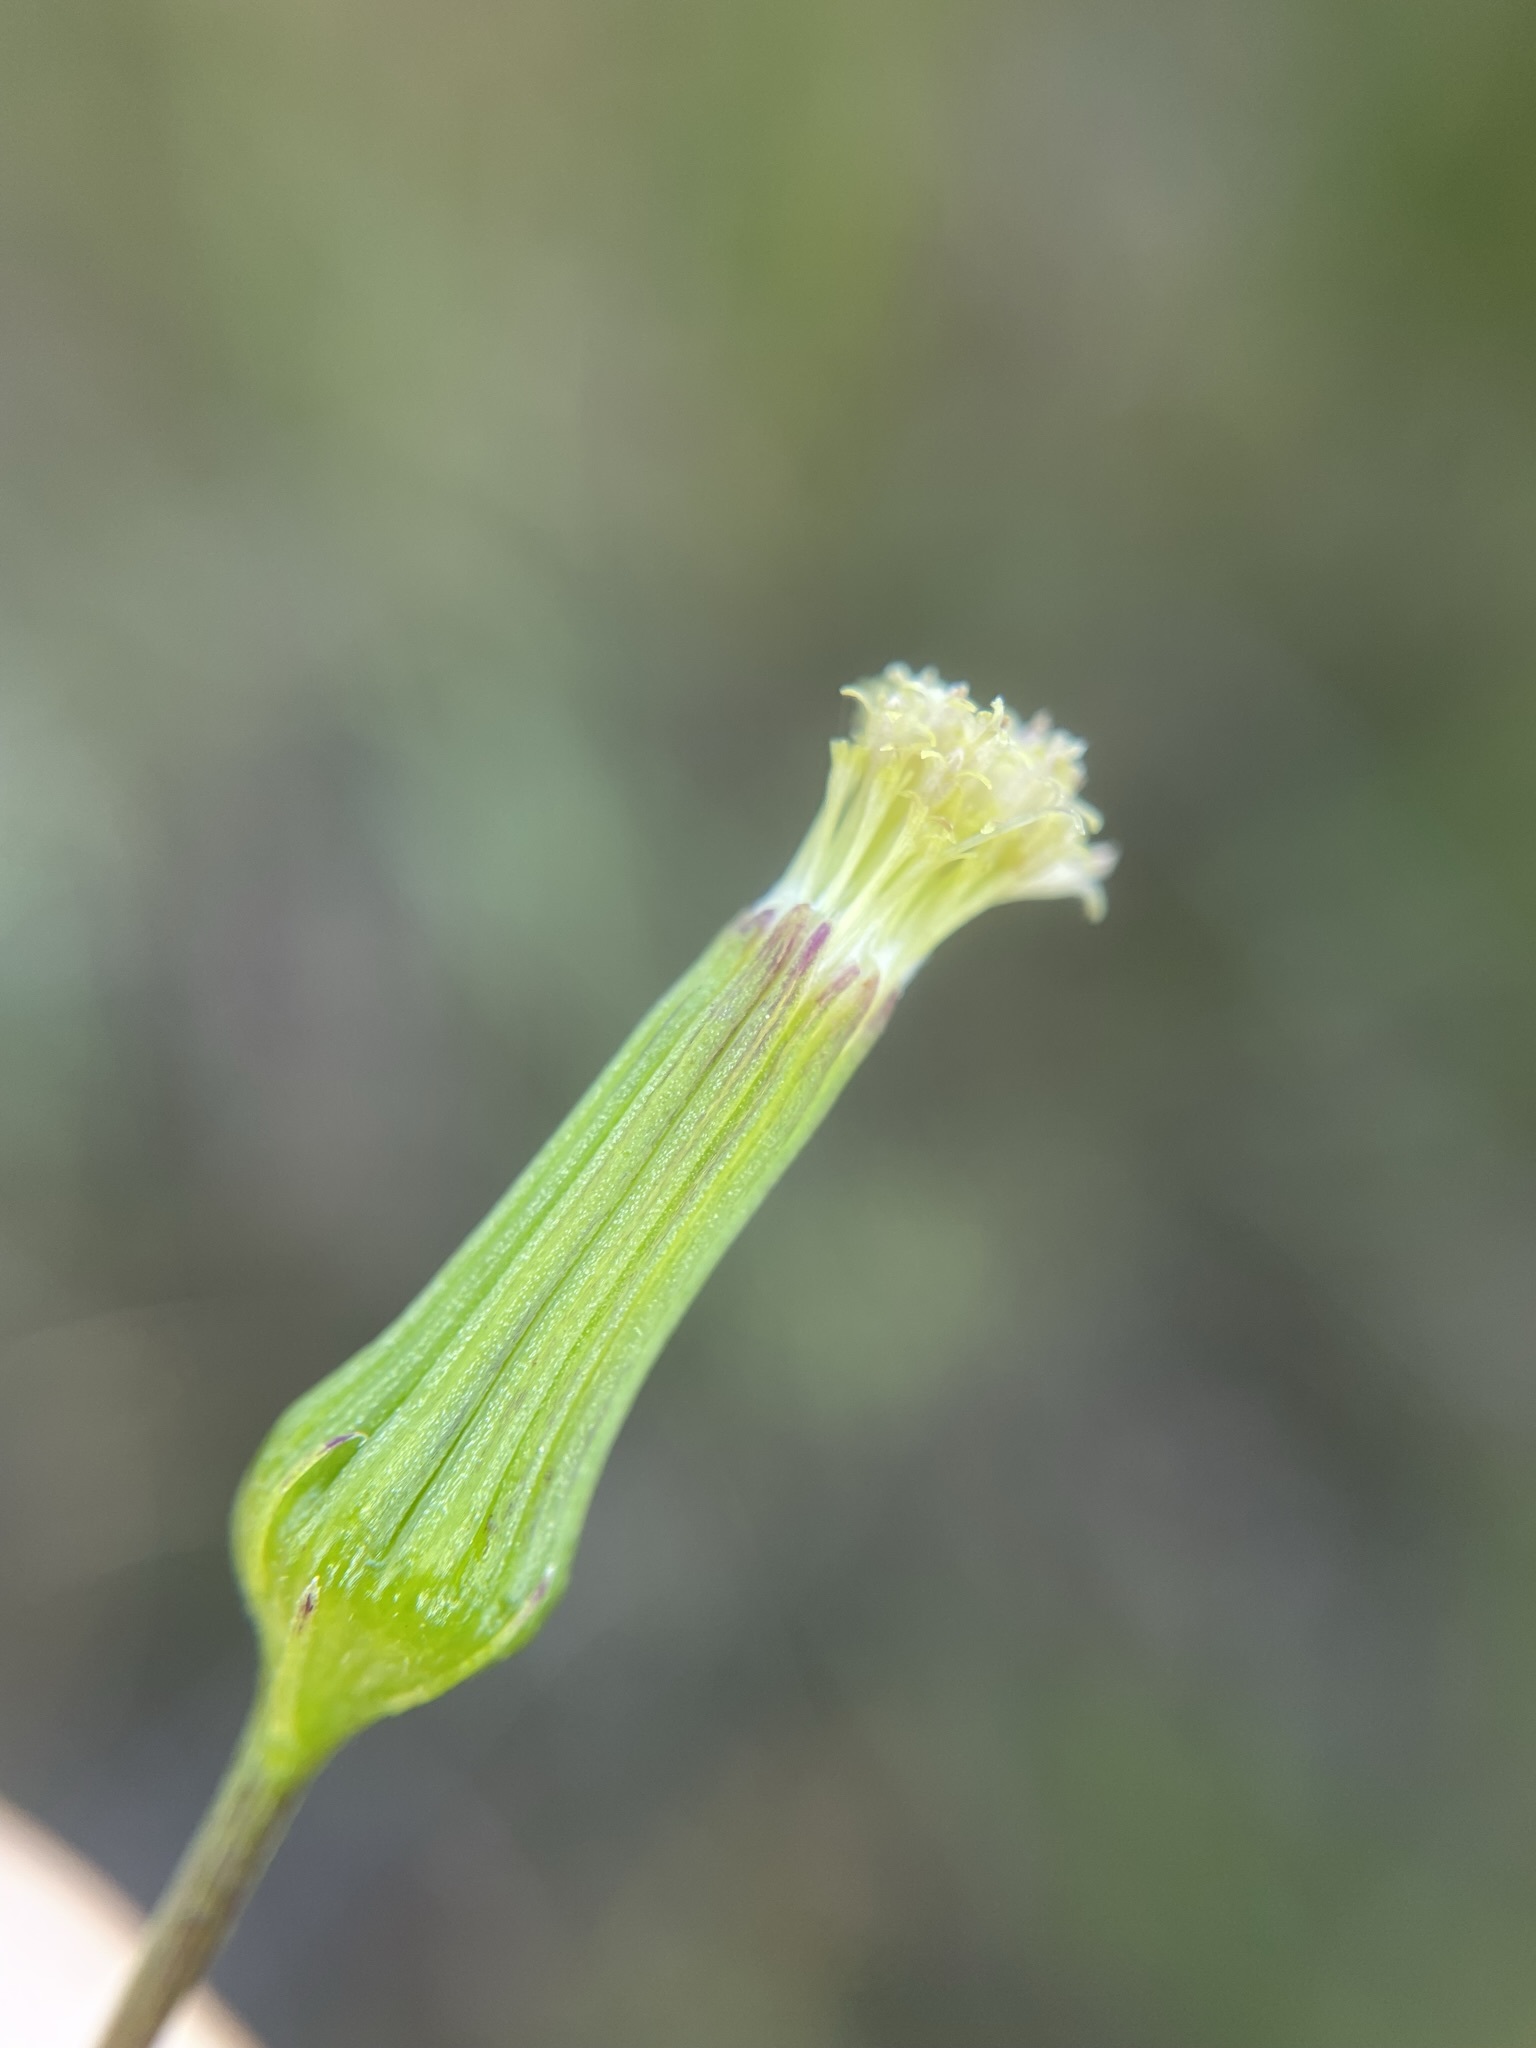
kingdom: Plantae
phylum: Tracheophyta
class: Magnoliopsida
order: Asterales
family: Asteraceae
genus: Erechtites
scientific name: Erechtites hieraciifolius
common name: American burnweed
